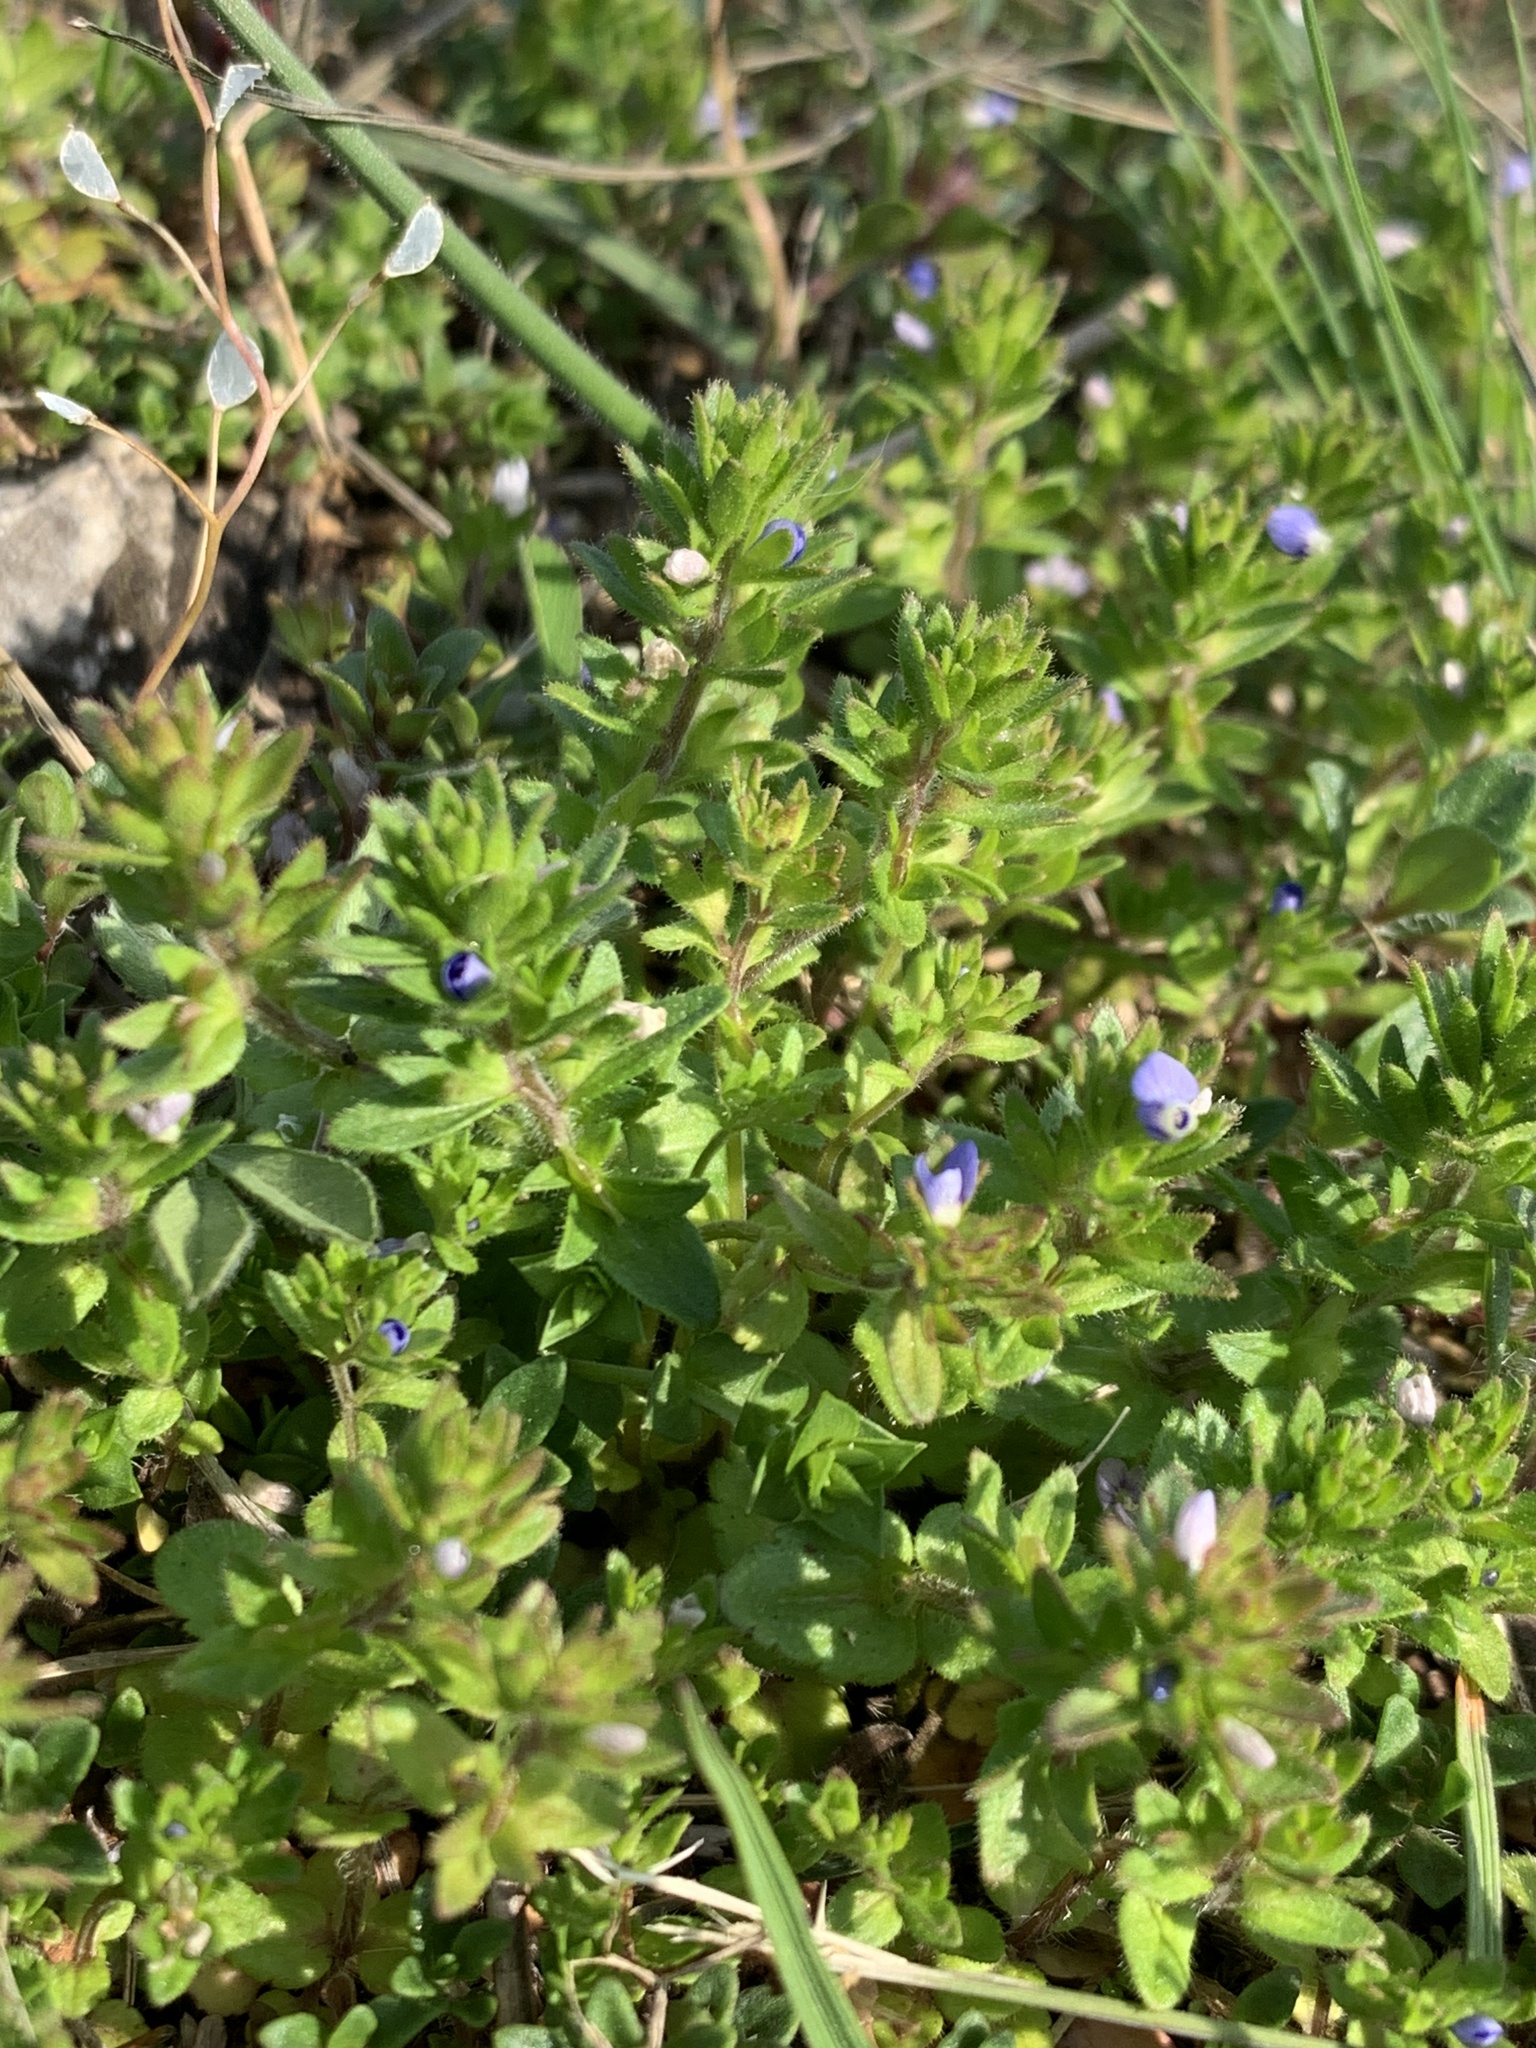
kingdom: Plantae
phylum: Tracheophyta
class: Magnoliopsida
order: Lamiales
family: Plantaginaceae
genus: Veronica
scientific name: Veronica arvensis
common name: Corn speedwell
